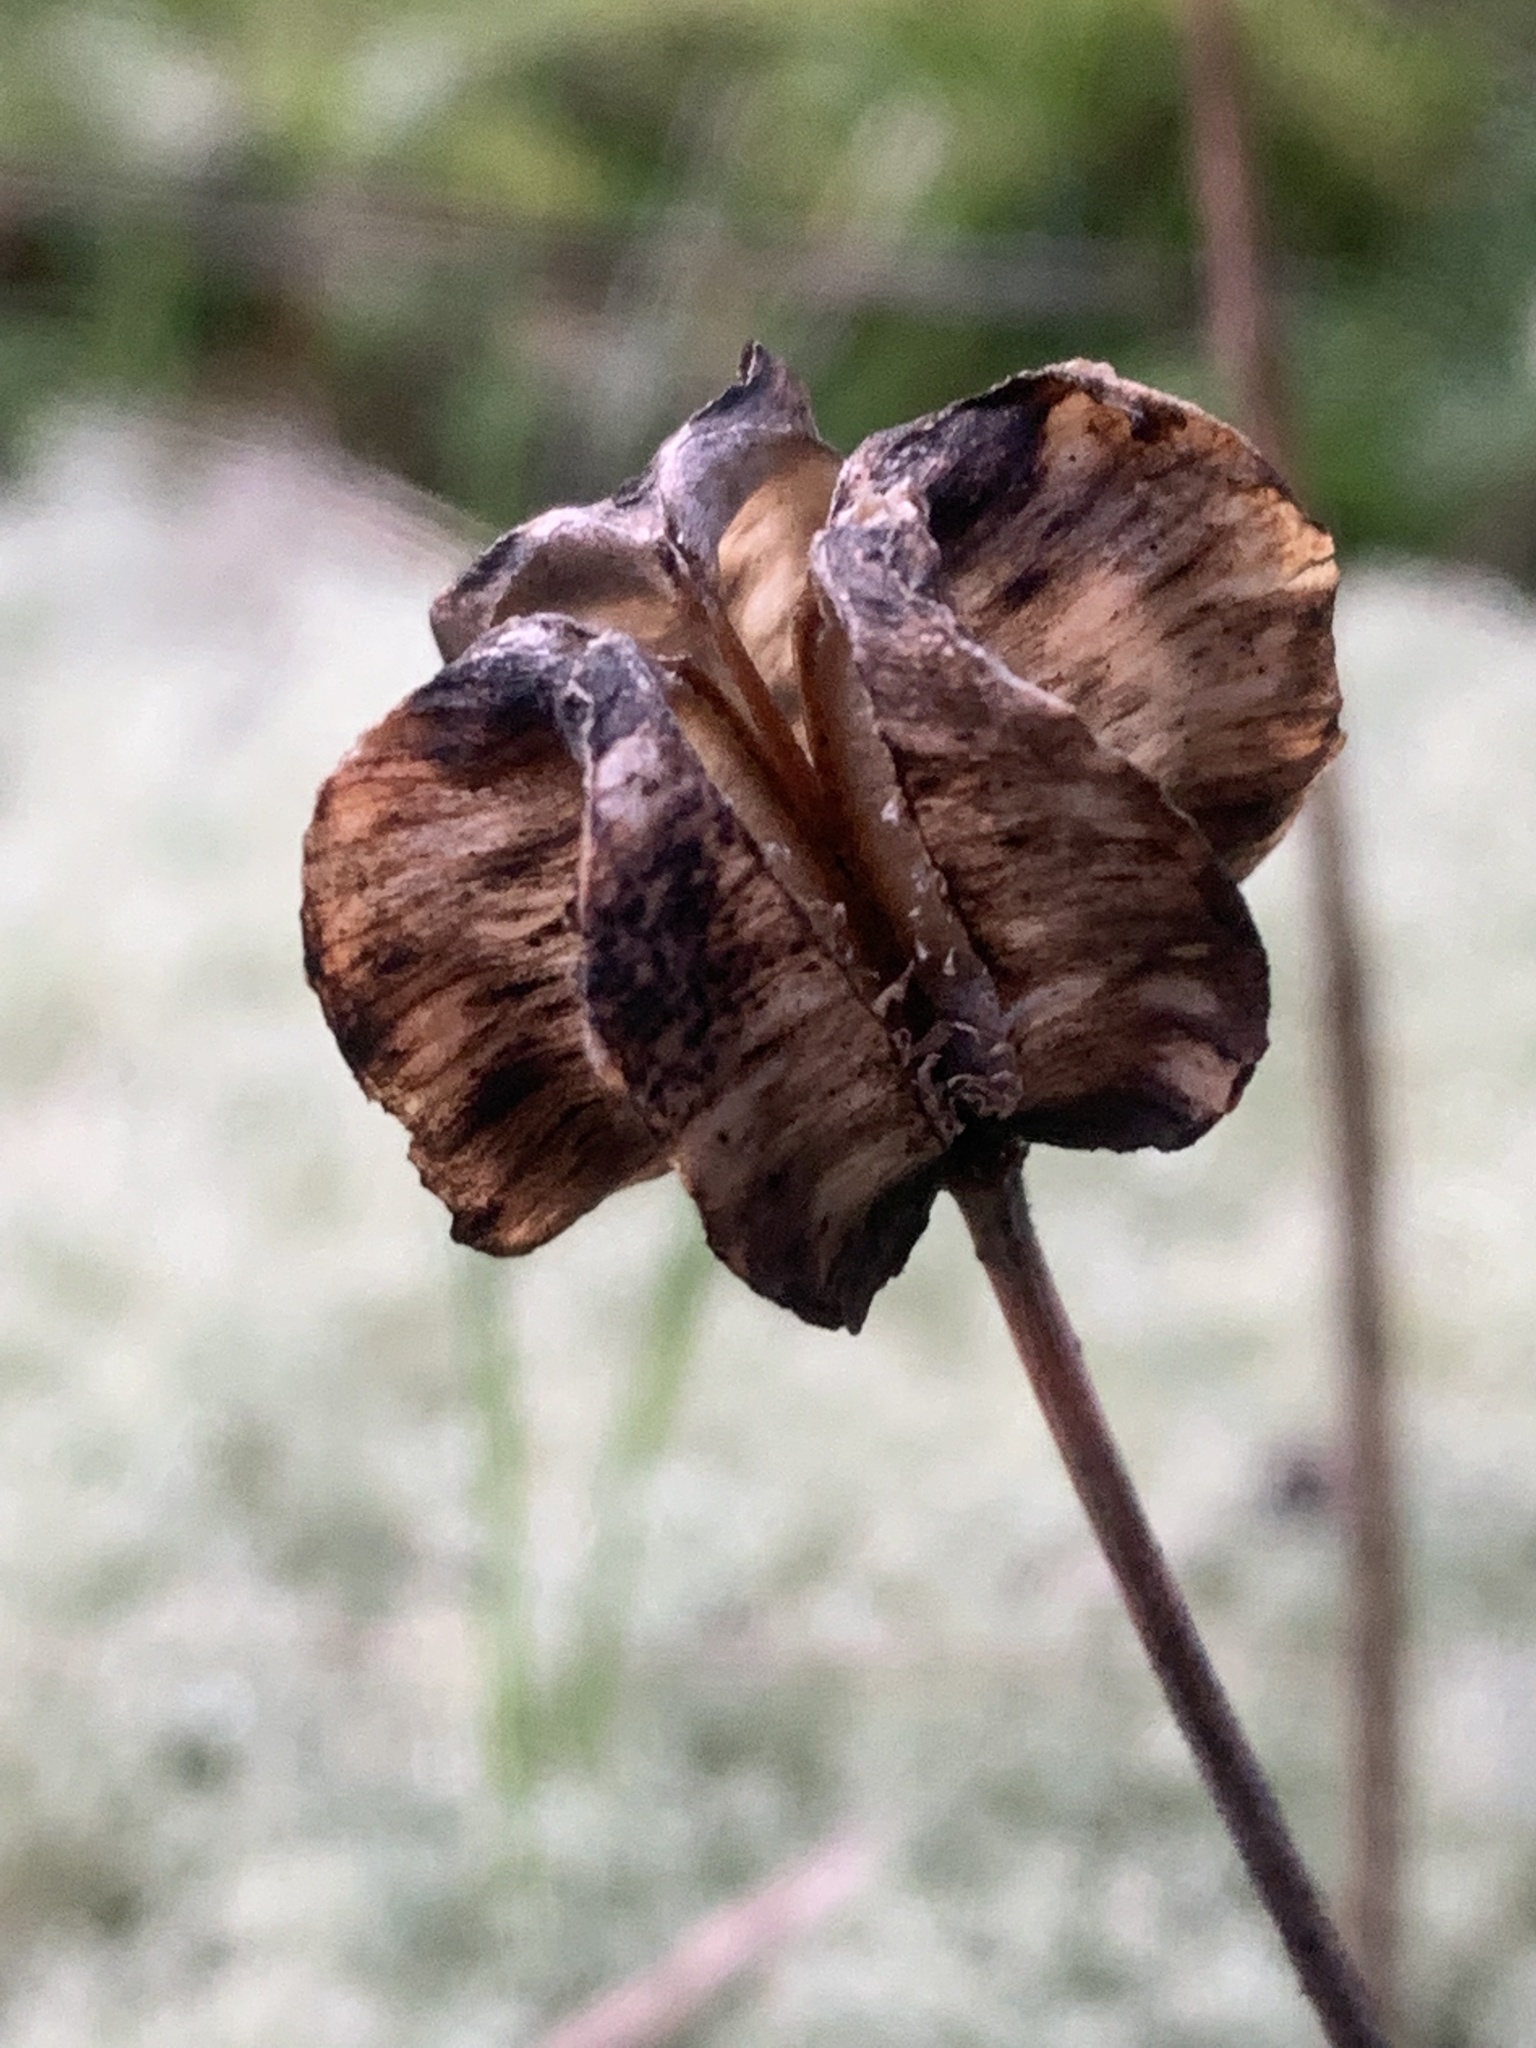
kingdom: Plantae
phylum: Tracheophyta
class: Liliopsida
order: Liliales
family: Liliaceae
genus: Fritillaria
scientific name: Fritillaria affinis
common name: Ojai fritillary
